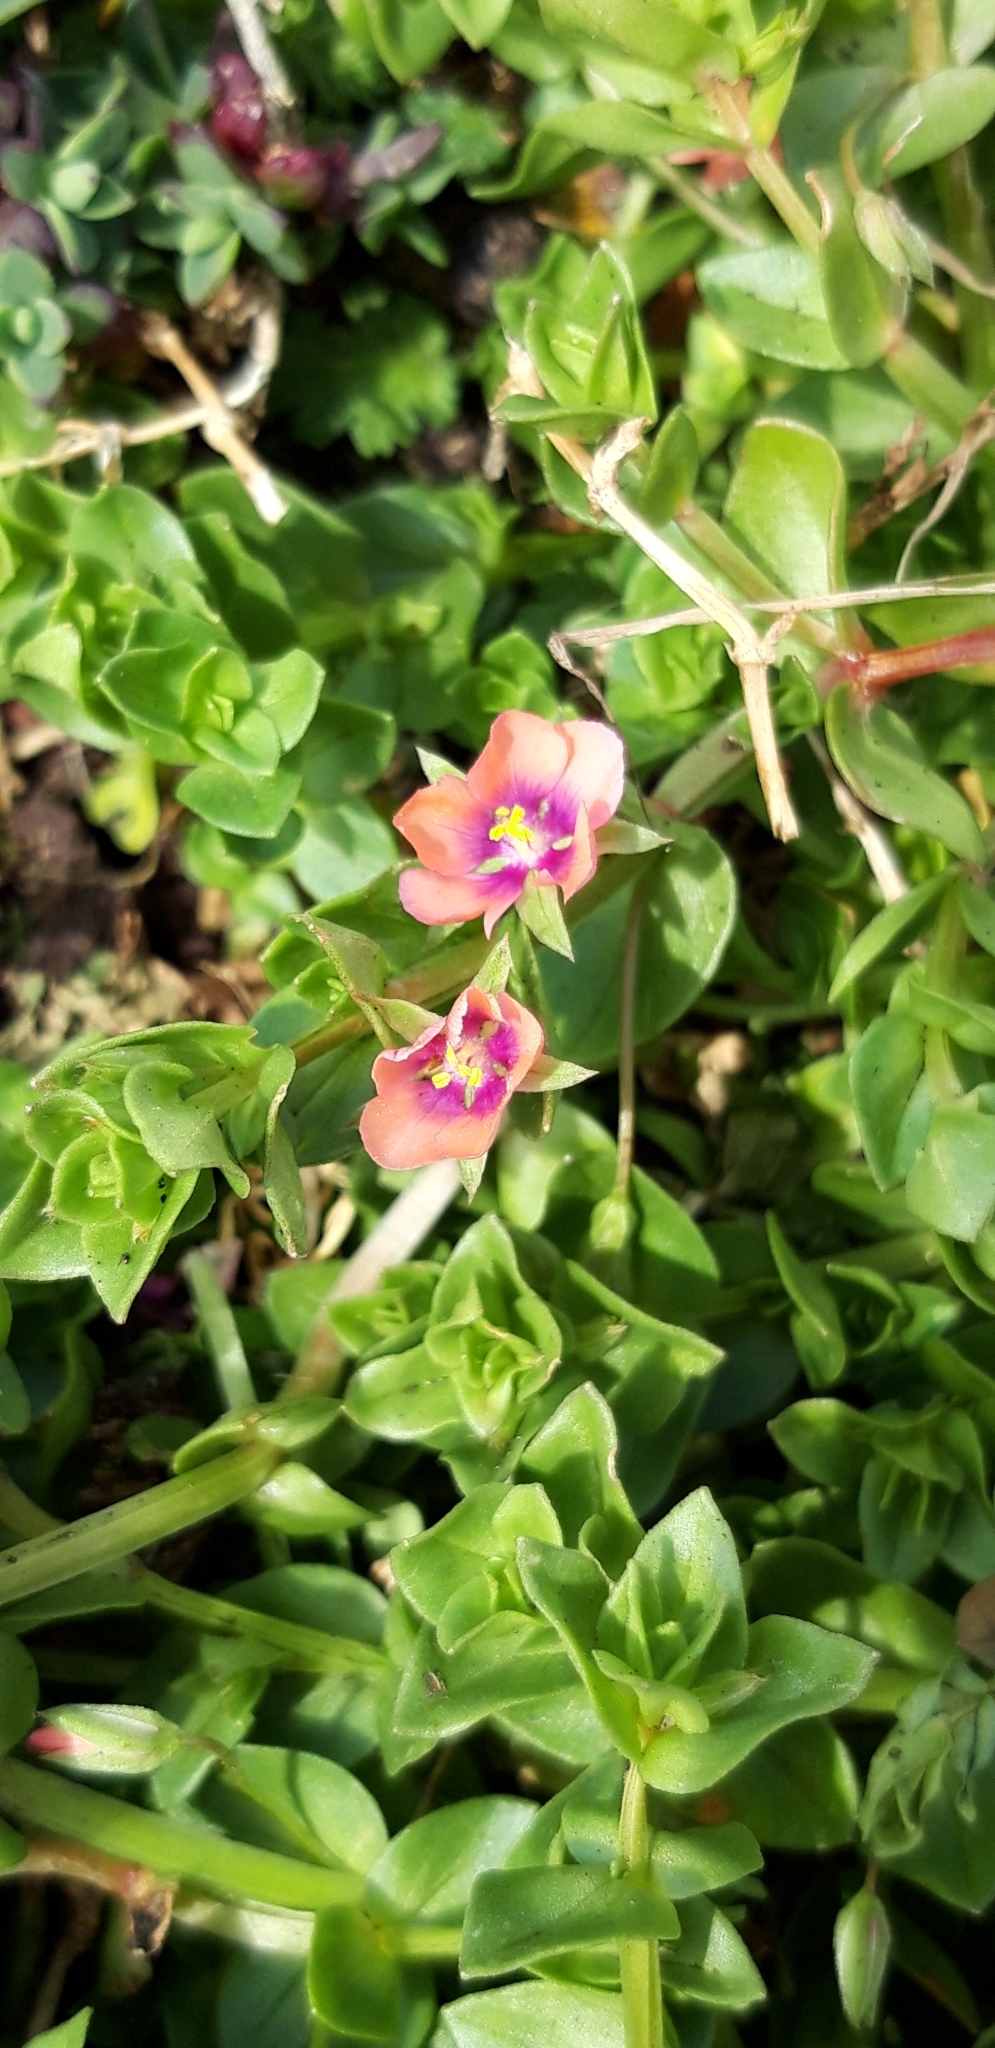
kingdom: Plantae
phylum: Tracheophyta
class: Magnoliopsida
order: Ericales
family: Primulaceae
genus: Lysimachia
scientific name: Lysimachia arvensis
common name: Scarlet pimpernel
